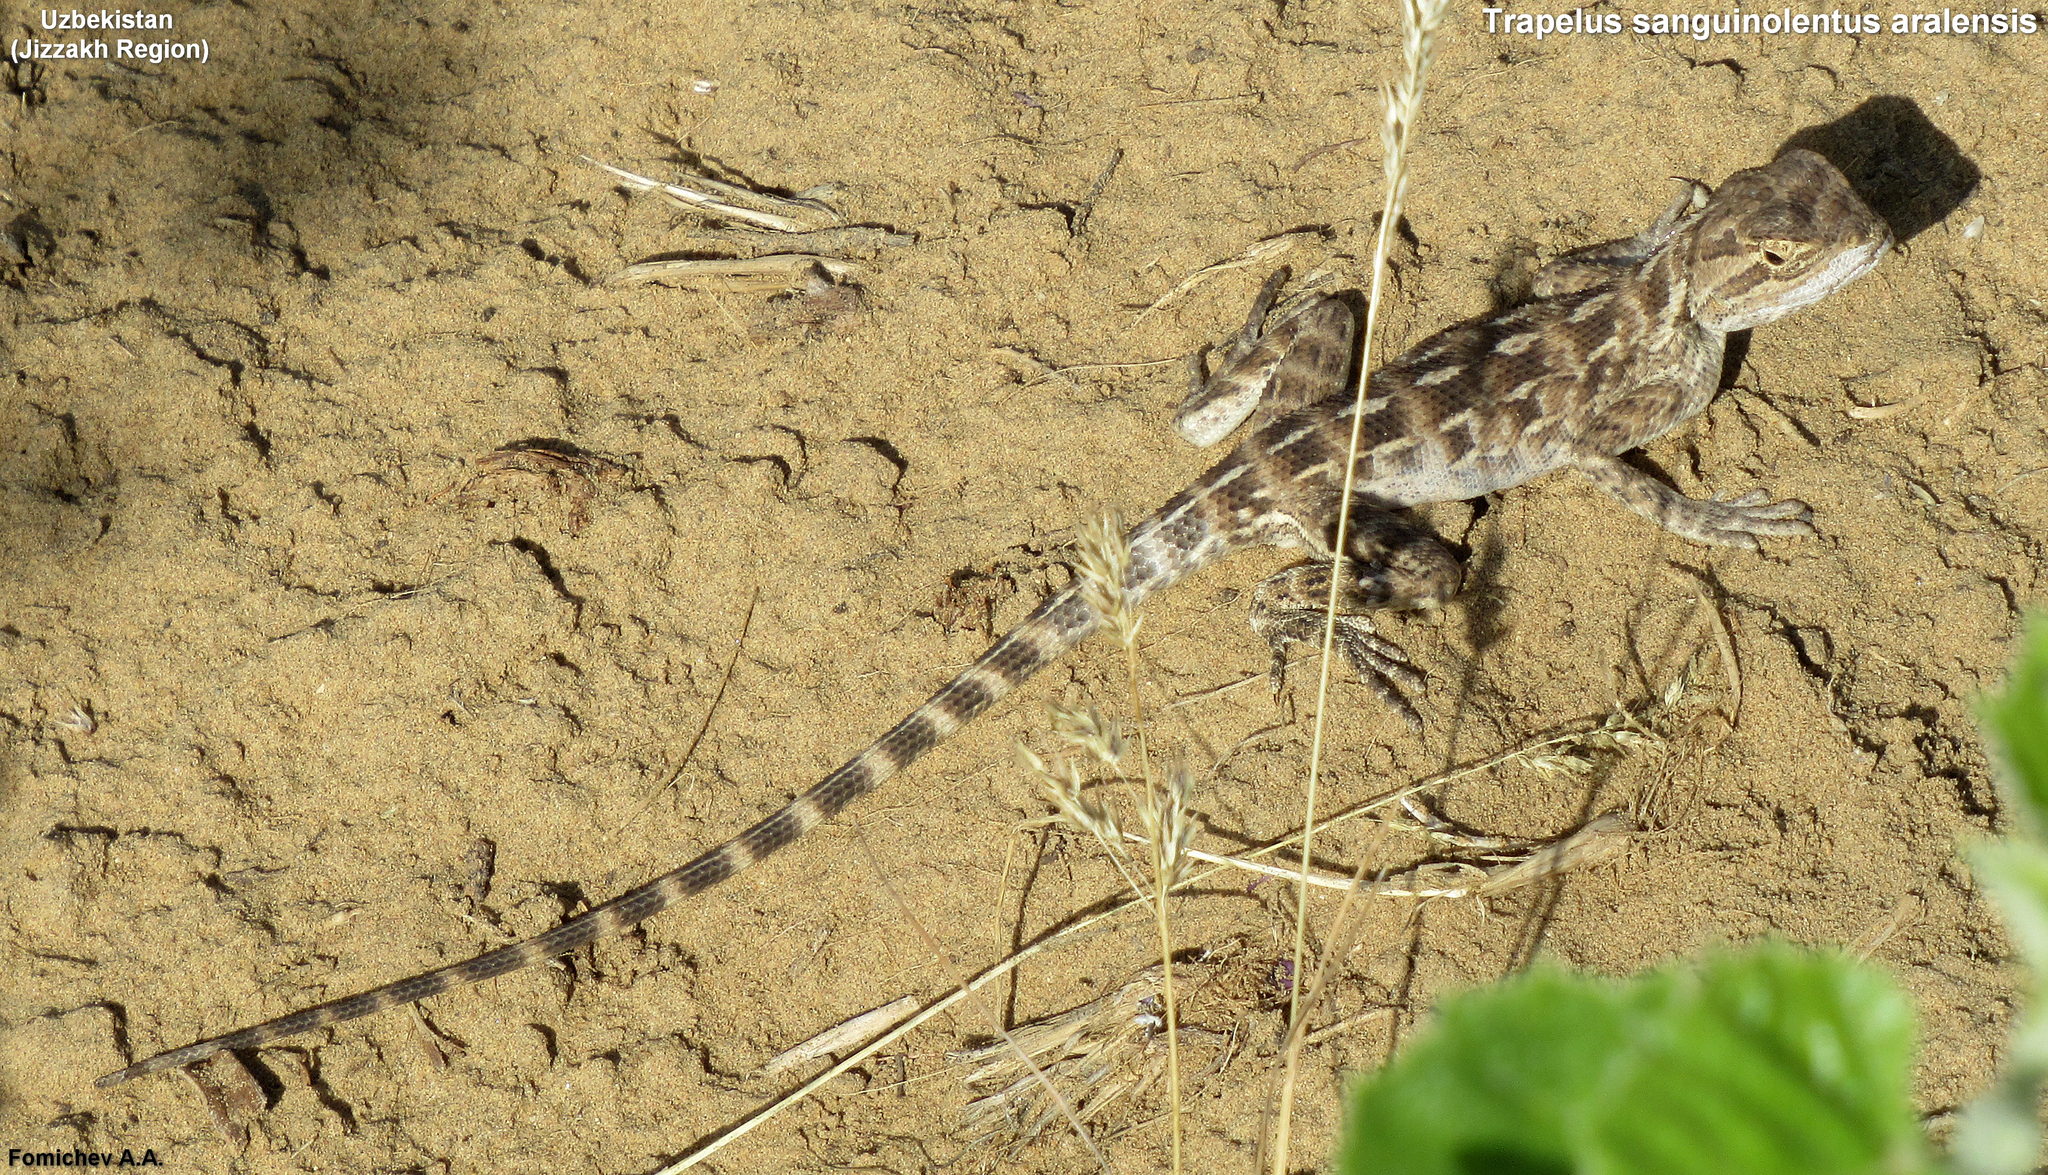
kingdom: Animalia
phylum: Chordata
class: Squamata
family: Agamidae
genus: Trapelus
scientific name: Trapelus sanguinolentus
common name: Steppe agama
